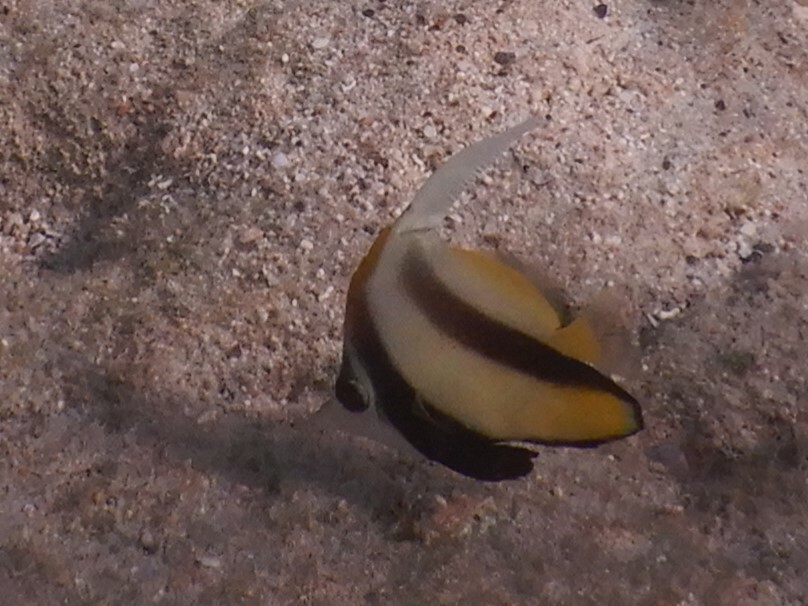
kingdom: Animalia
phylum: Chordata
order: Perciformes
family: Chaetodontidae
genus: Heniochus
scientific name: Heniochus intermedius
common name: Red sea bannerfish
